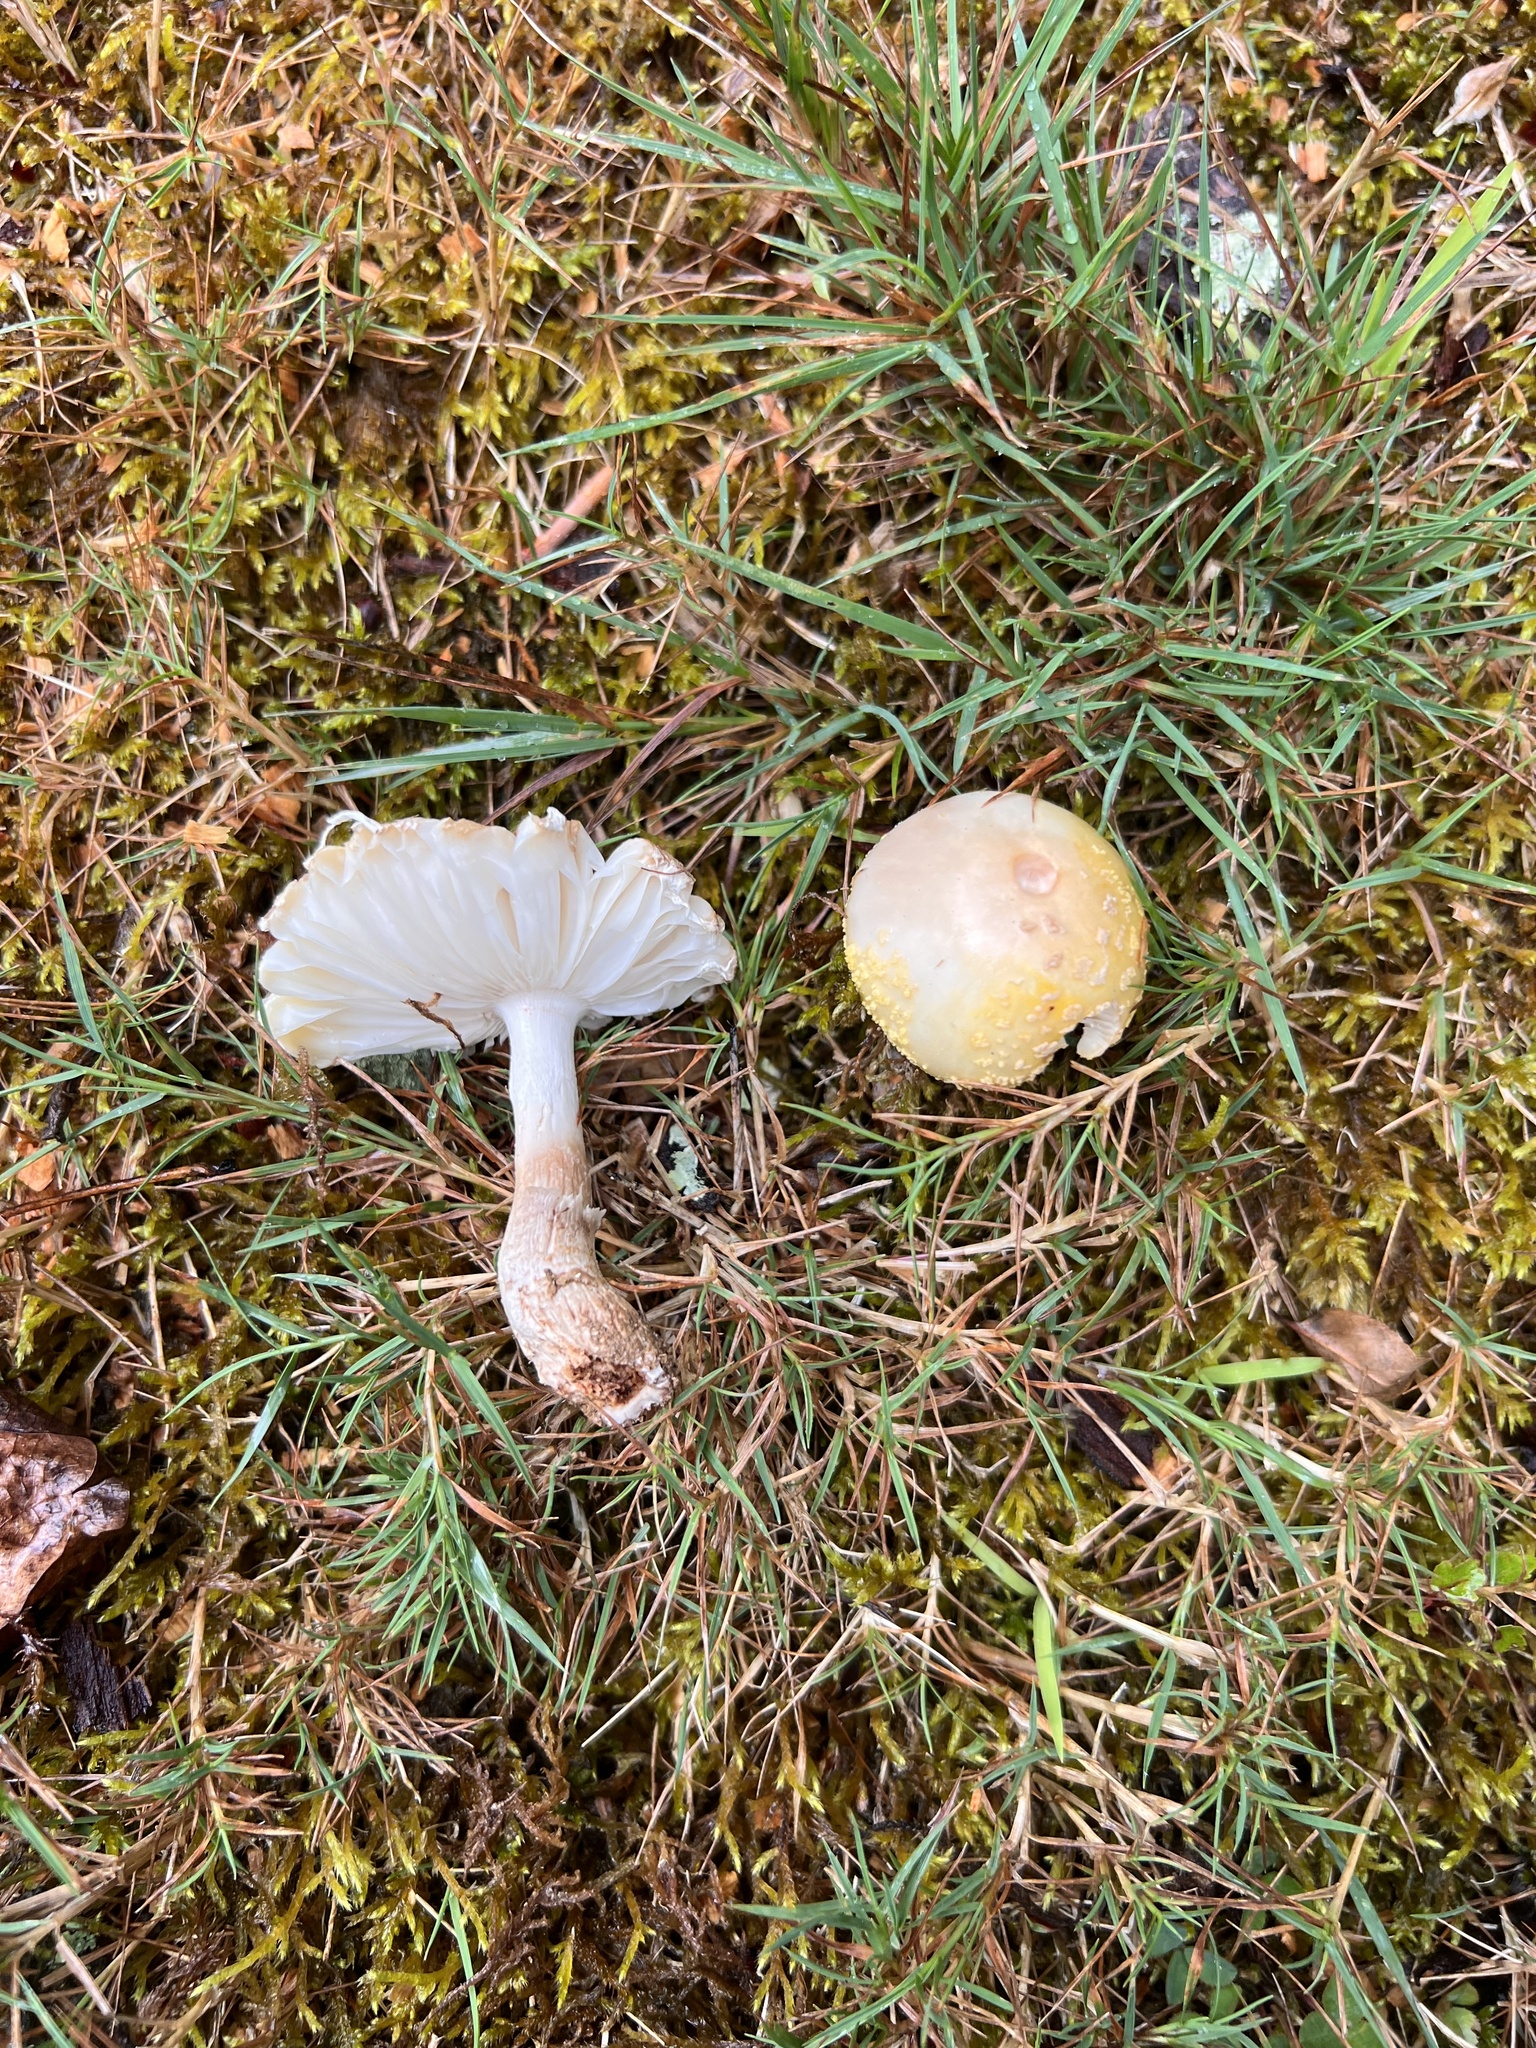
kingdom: Fungi
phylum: Basidiomycota
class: Agaricomycetes
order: Agaricales
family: Amanitaceae
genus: Amanita
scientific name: Amanita flavorubens
